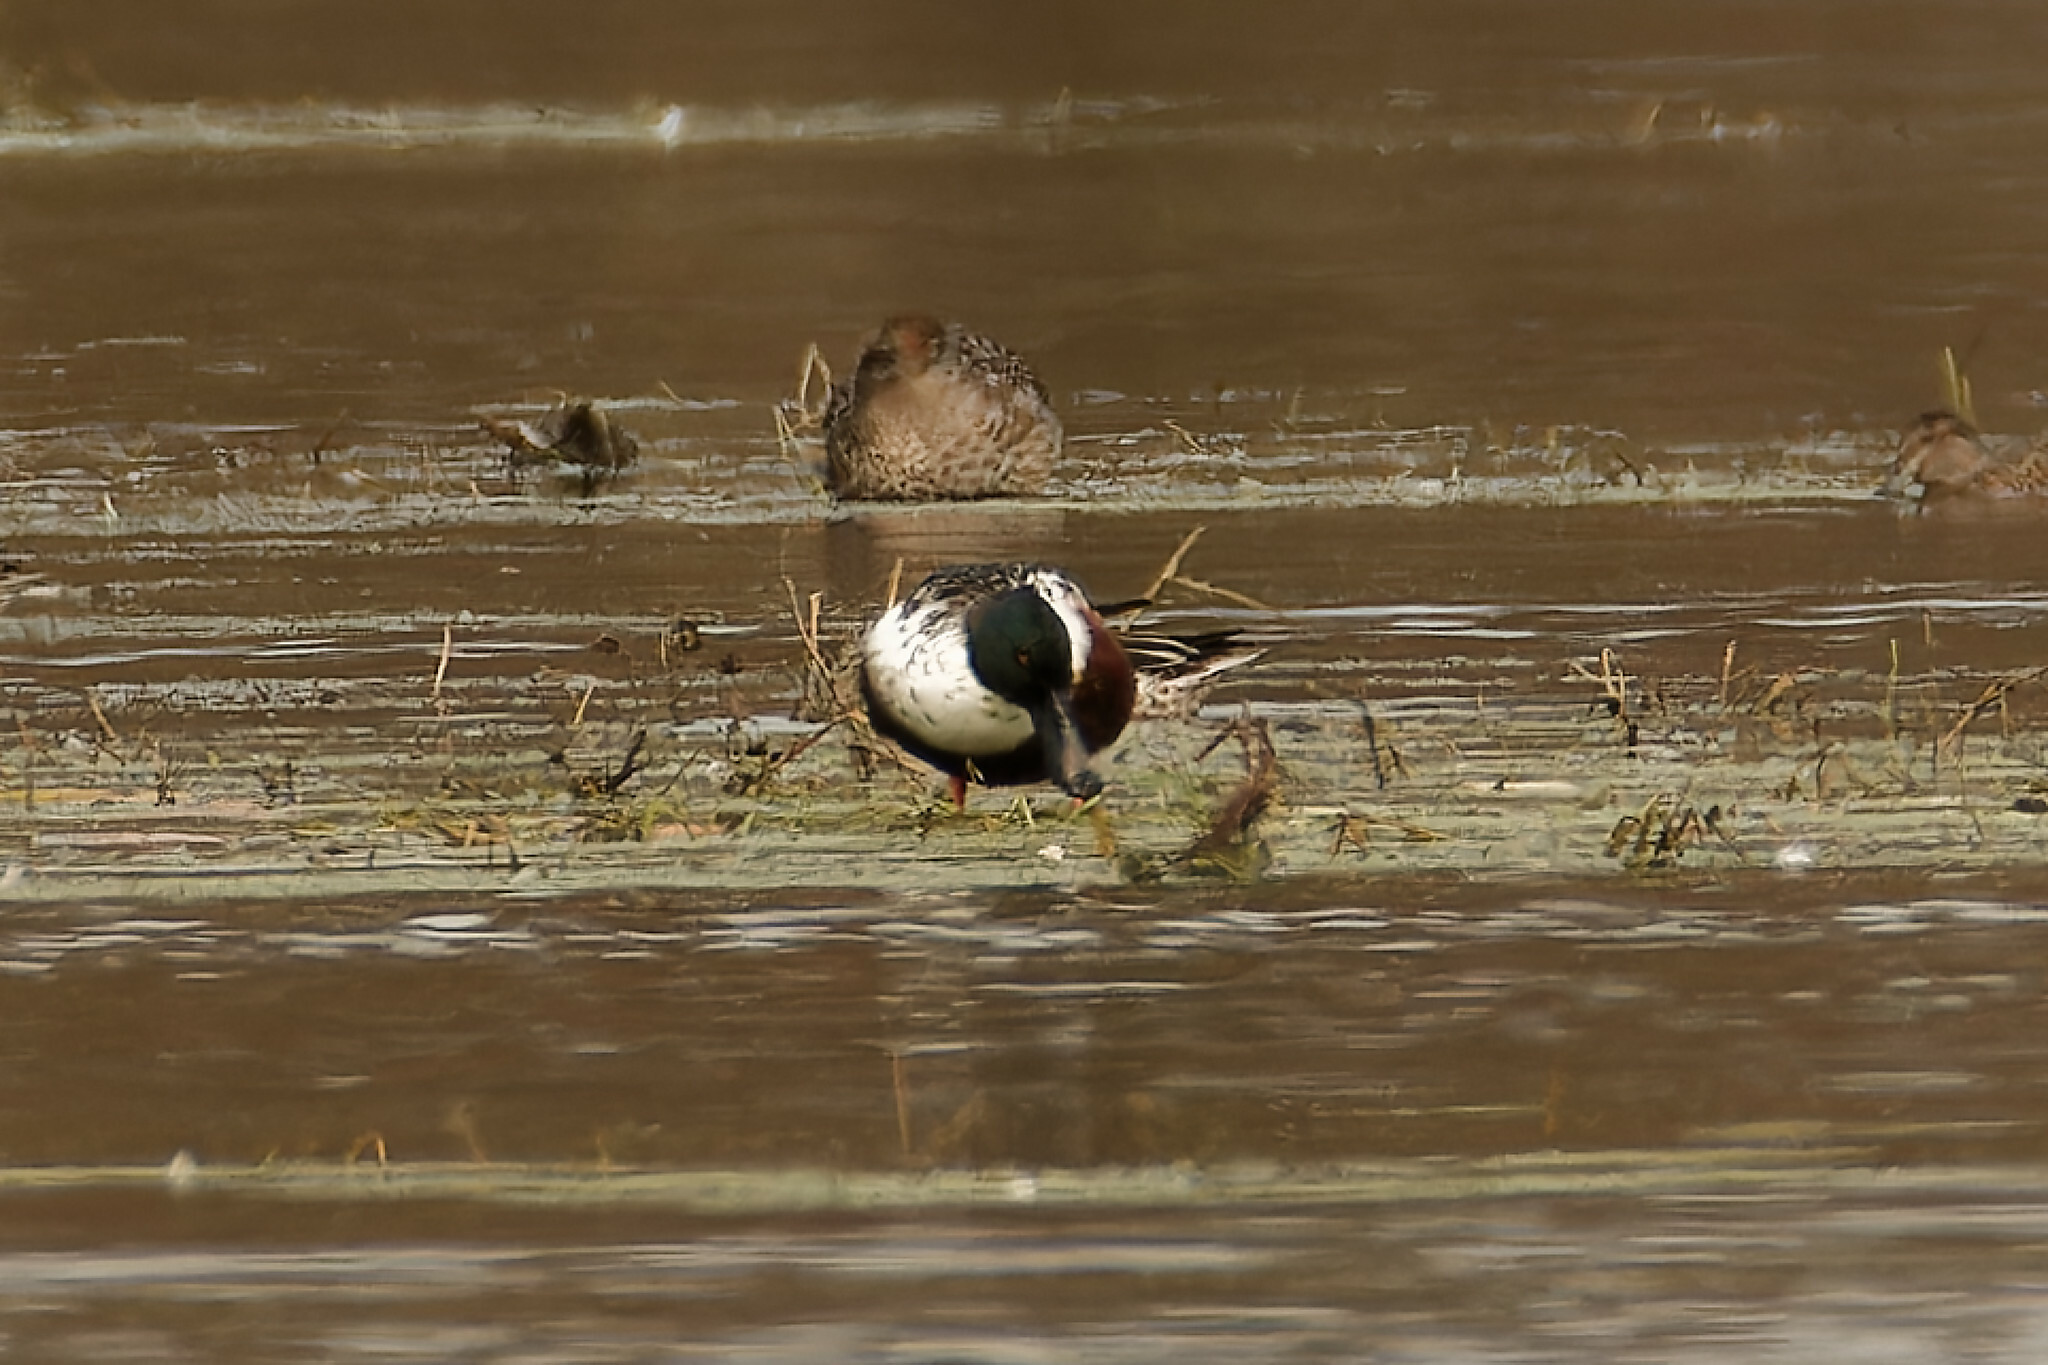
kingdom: Animalia
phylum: Chordata
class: Aves
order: Anseriformes
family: Anatidae
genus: Spatula
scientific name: Spatula clypeata
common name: Northern shoveler
